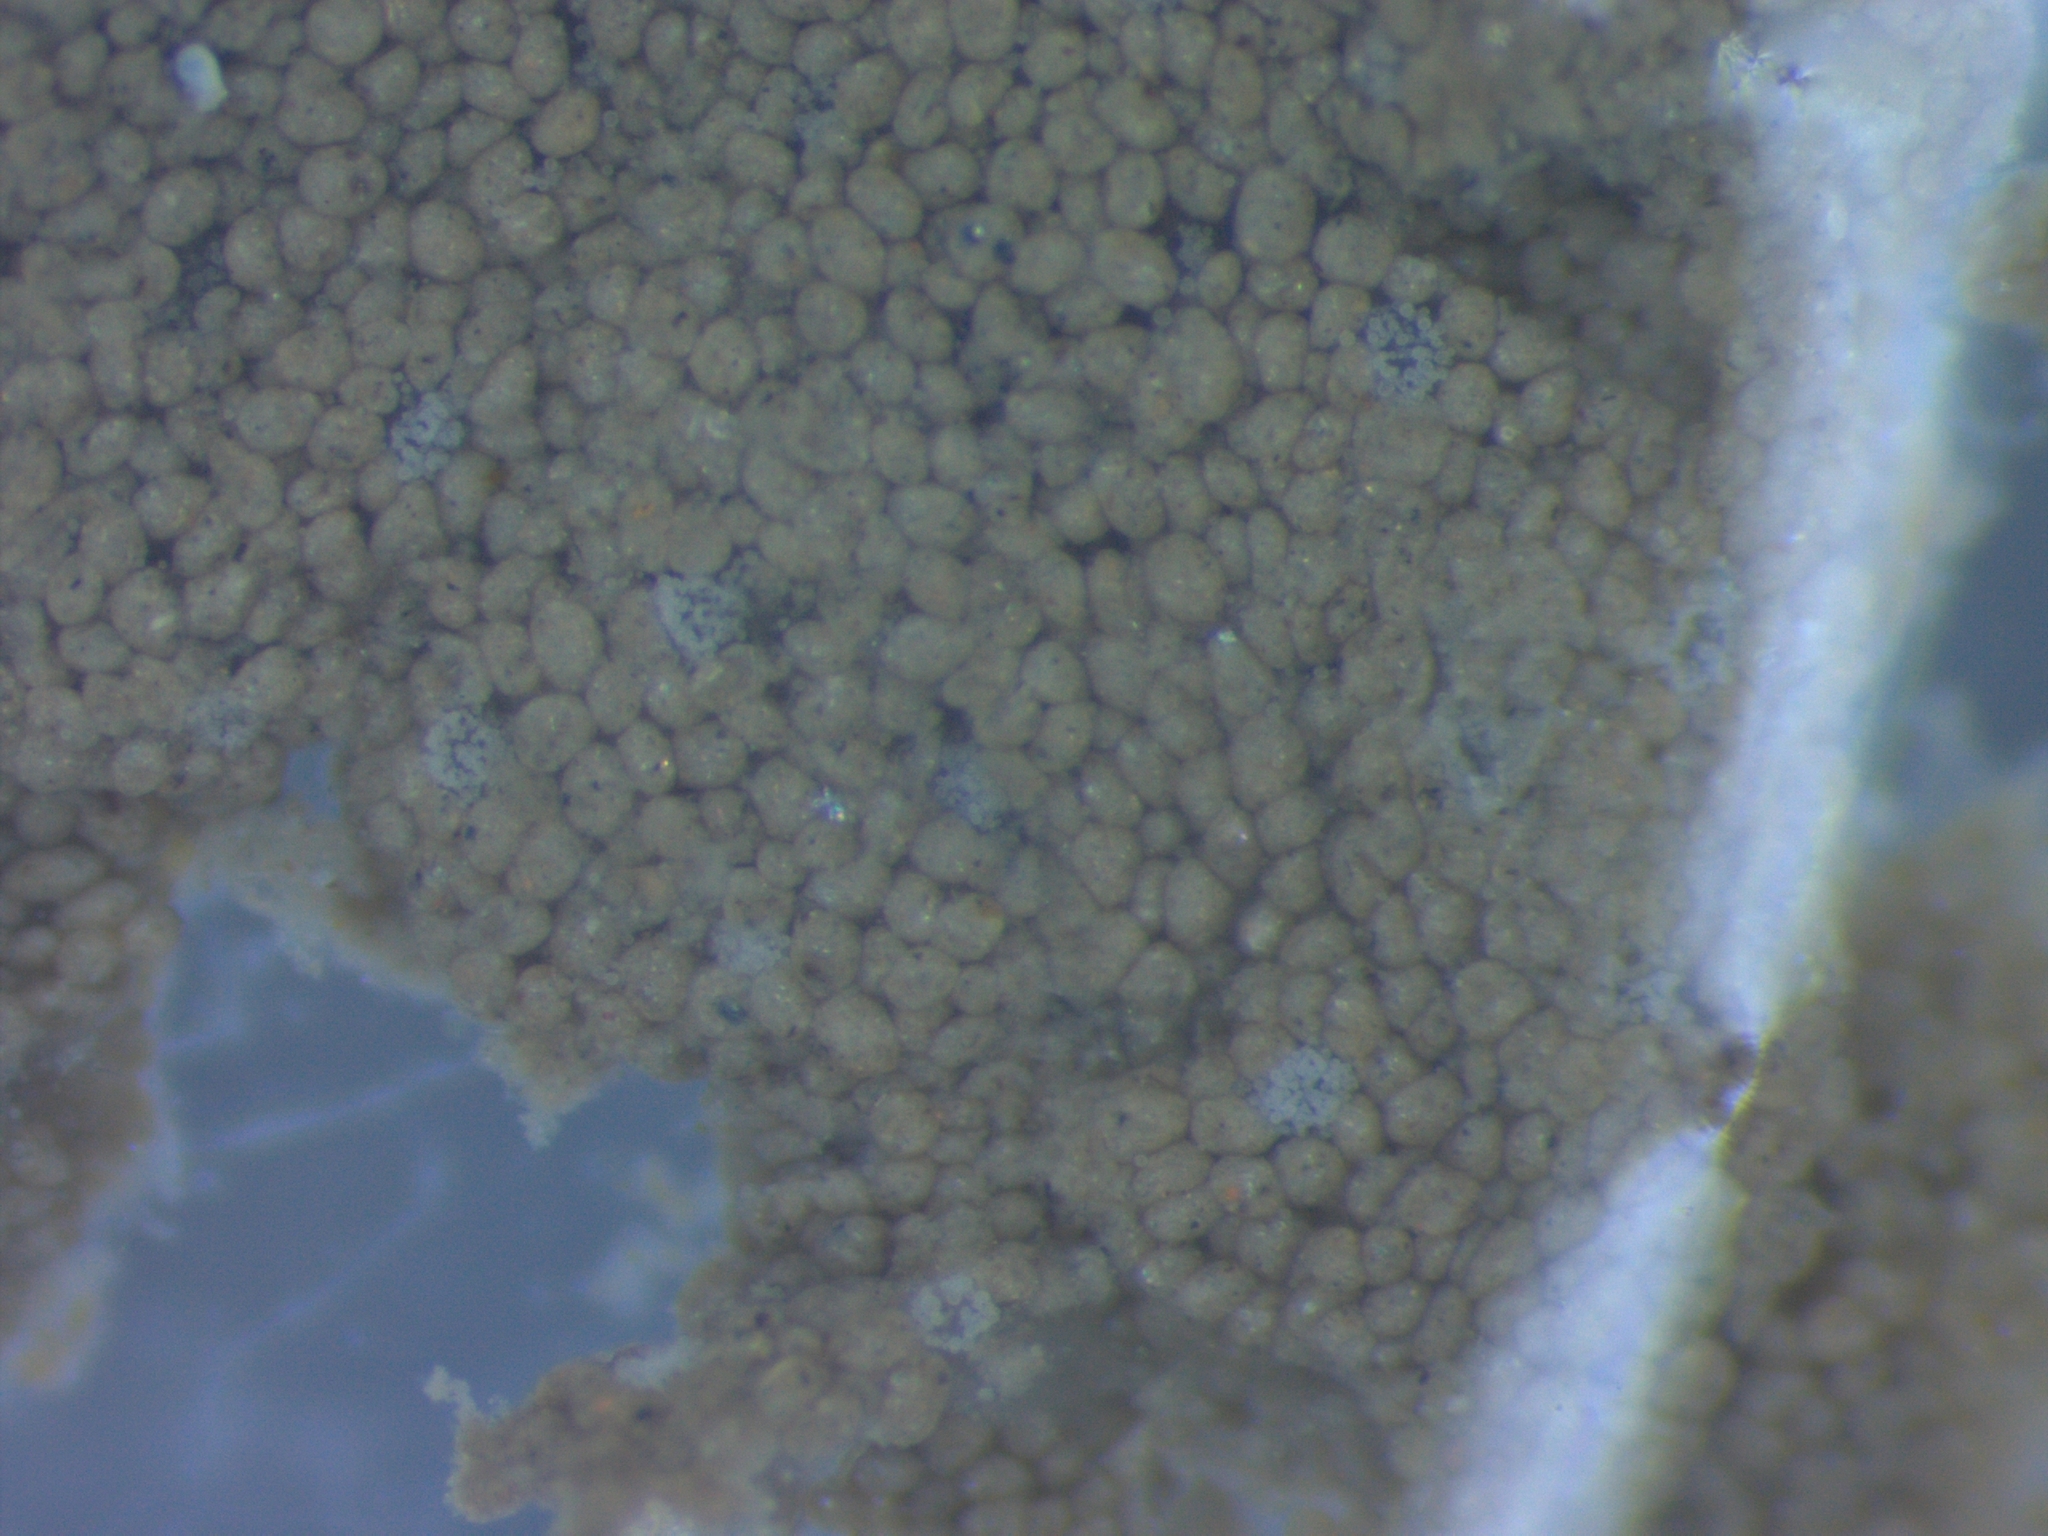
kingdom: Animalia
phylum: Chordata
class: Ascidiacea
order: Aplousobranchia
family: Didemnidae
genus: Didemnum
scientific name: Didemnum psammatodes
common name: Ascidian
